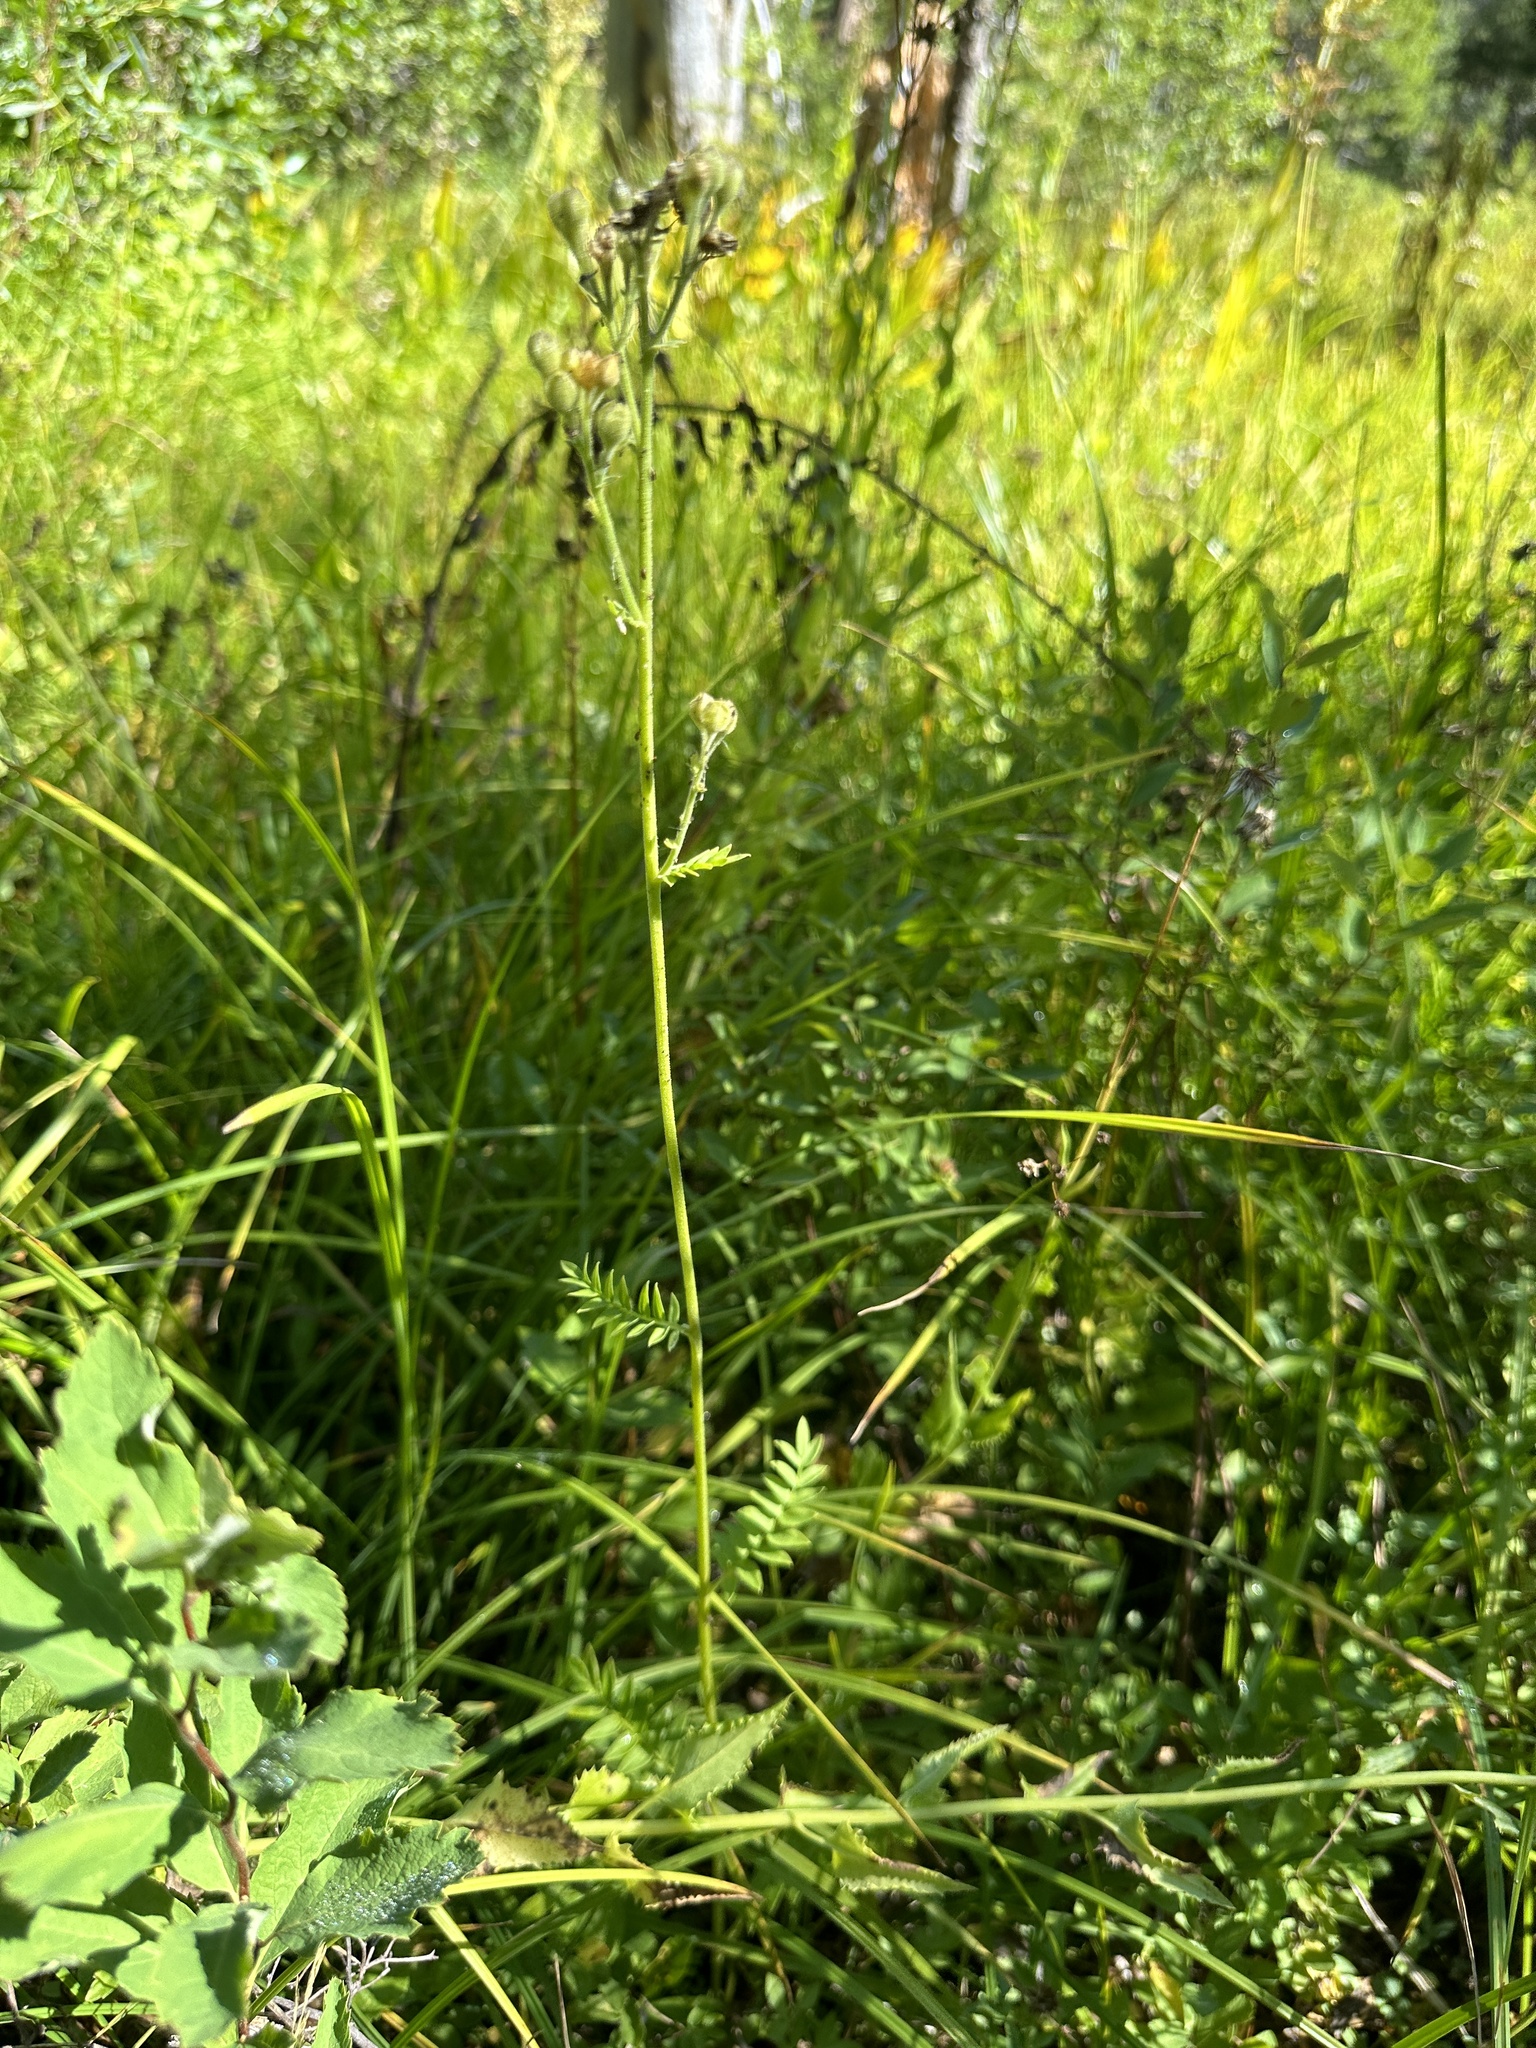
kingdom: Plantae
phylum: Tracheophyta
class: Magnoliopsida
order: Ericales
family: Polemoniaceae
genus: Polemonium
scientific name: Polemonium occidentale
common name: Western jacob's-ladder
